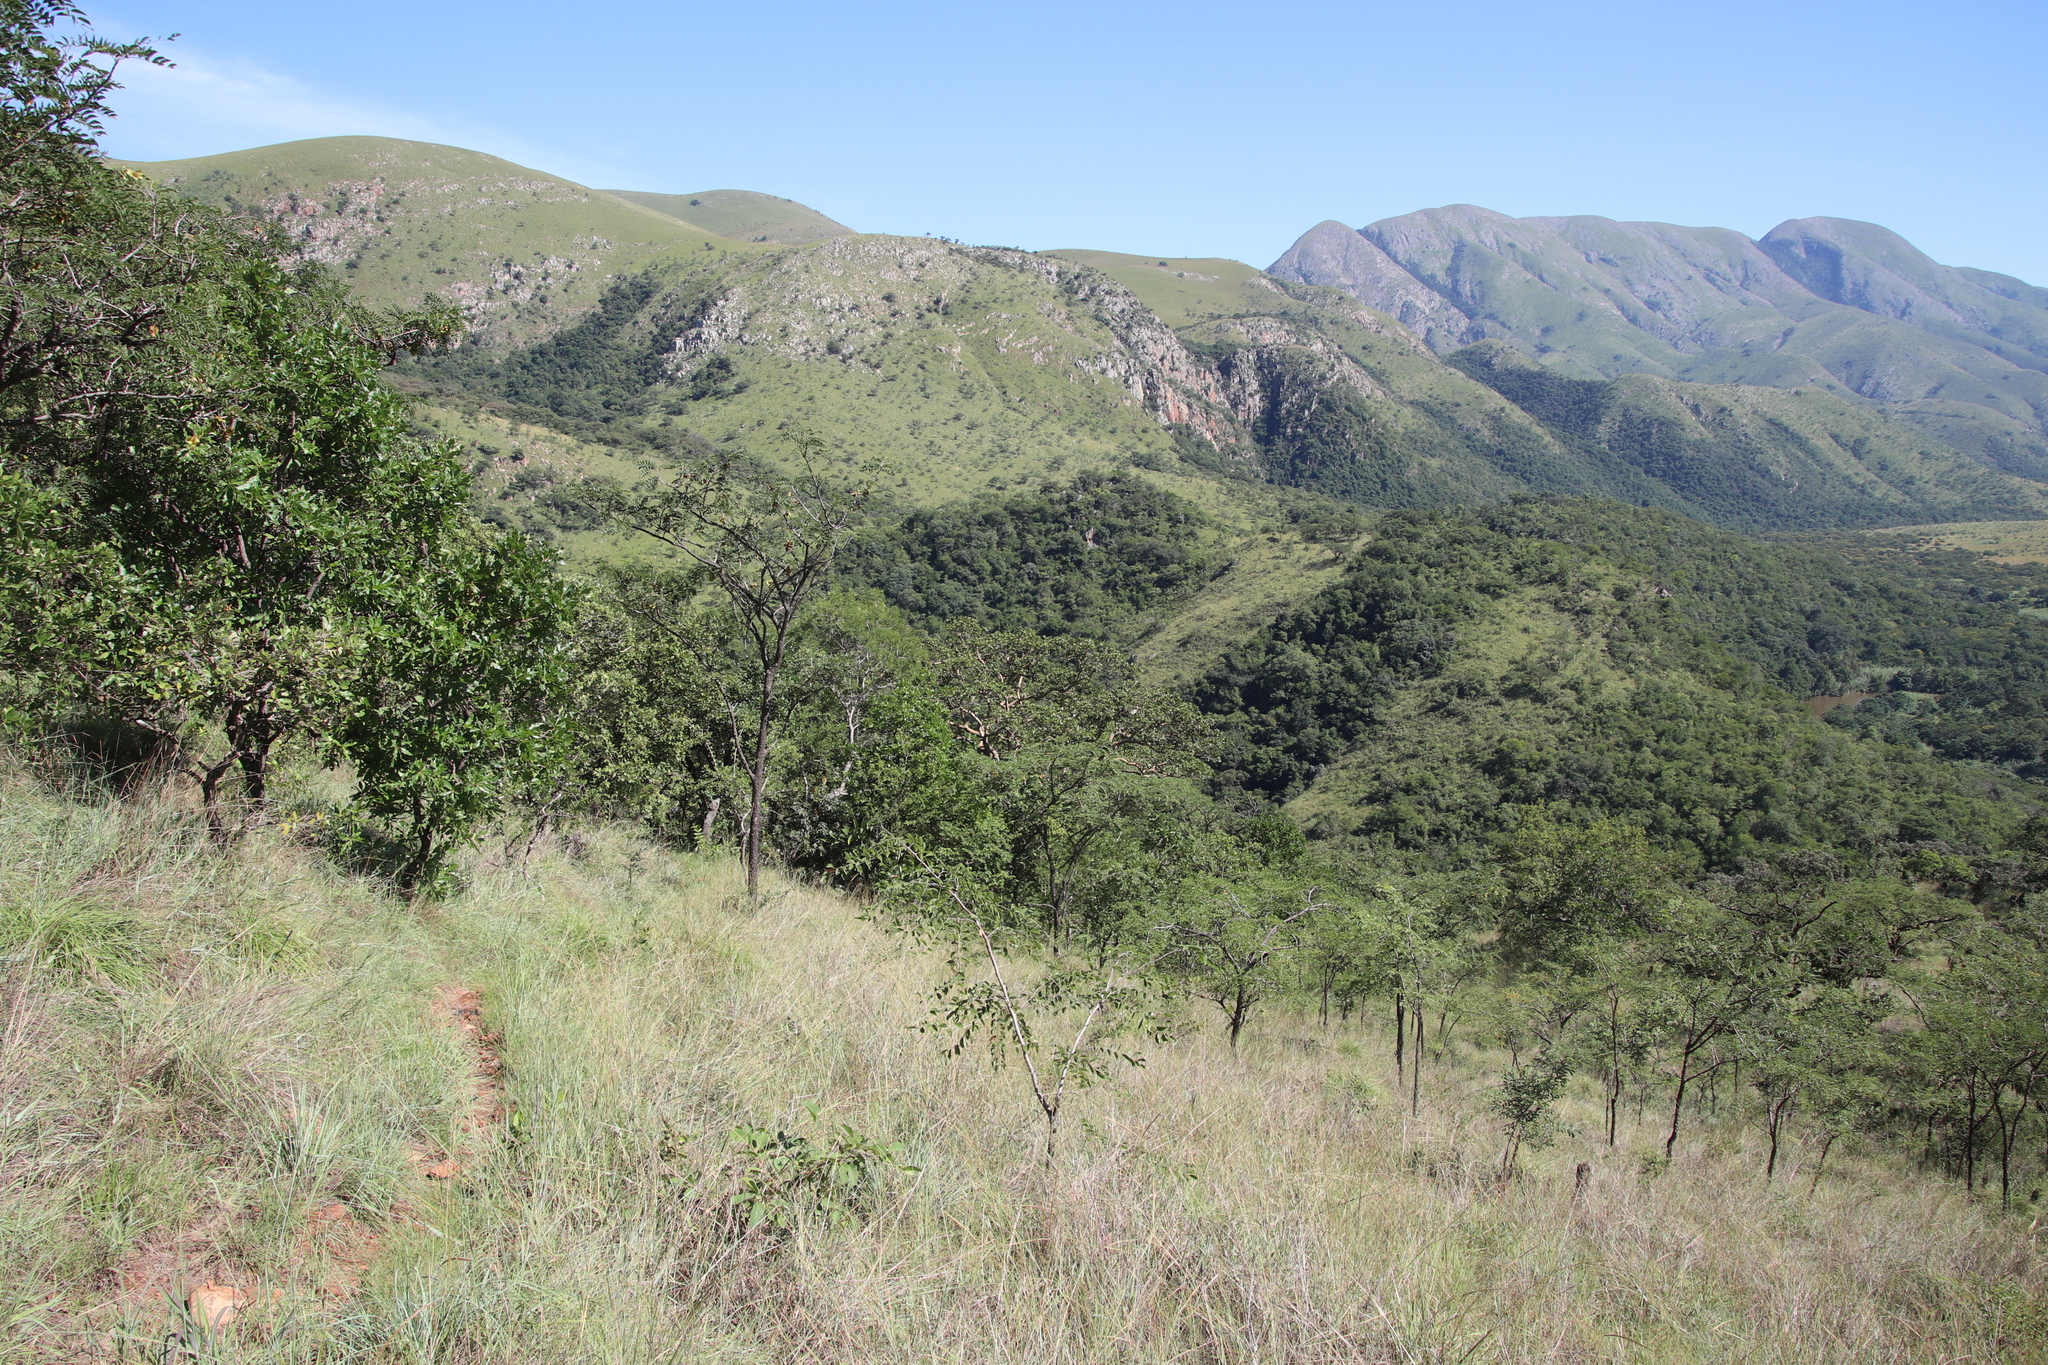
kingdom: Plantae
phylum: Tracheophyta
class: Magnoliopsida
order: Fabales
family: Fabaceae
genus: Pterocarpus
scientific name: Pterocarpus angolensis
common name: Bloodwood tree
